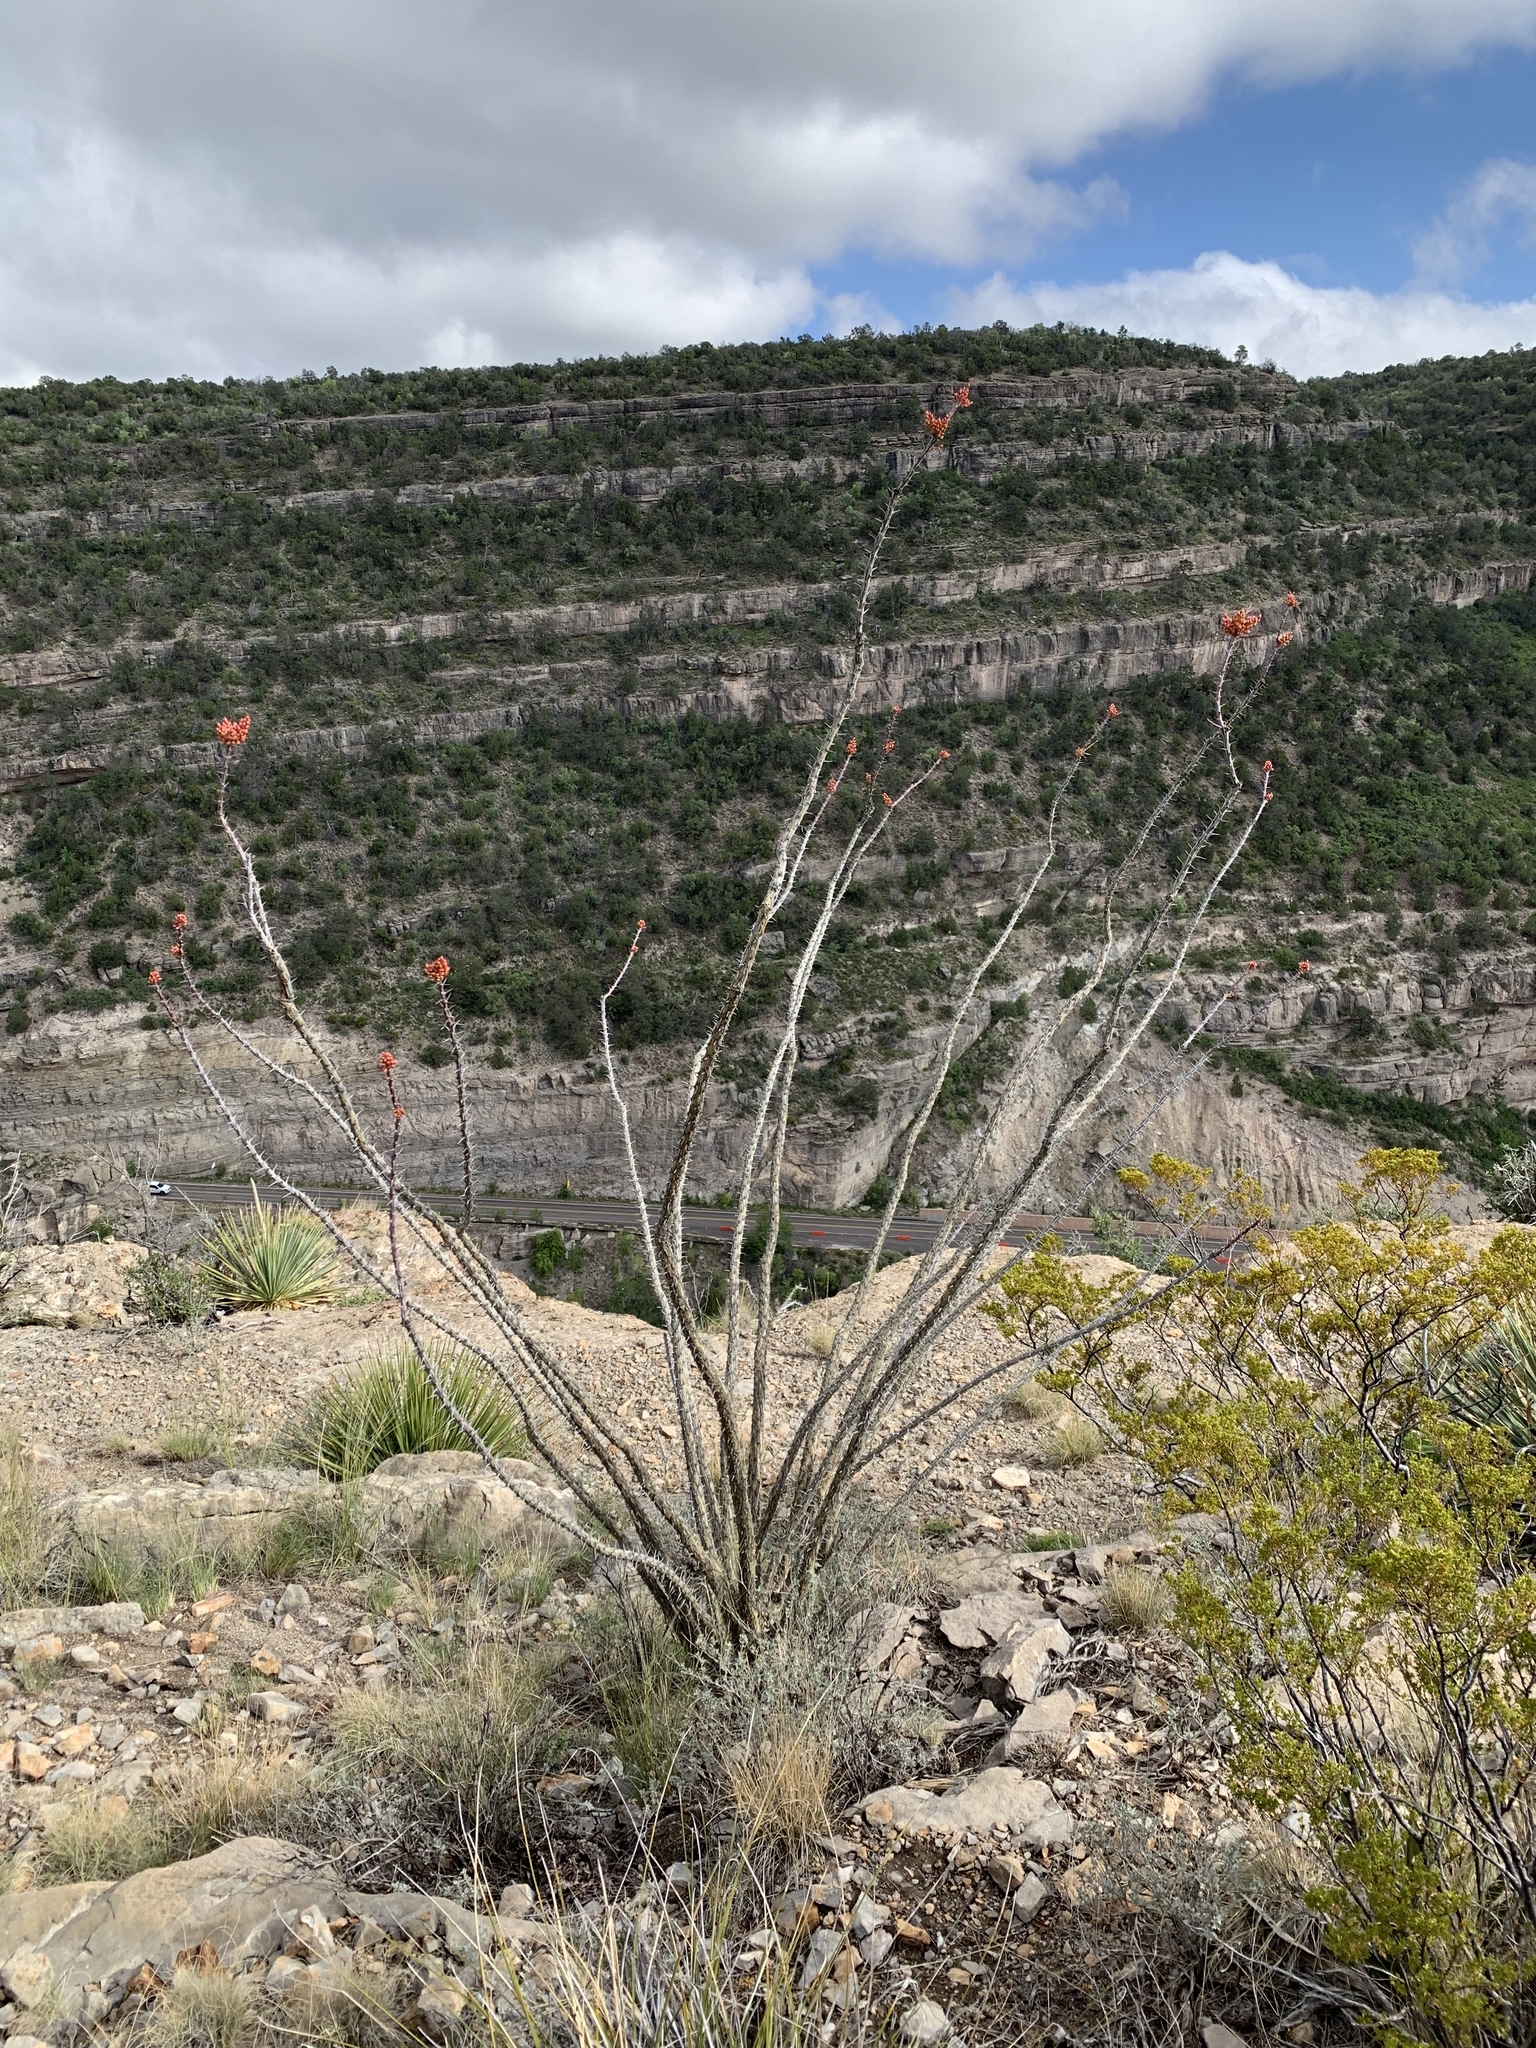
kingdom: Plantae
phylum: Tracheophyta
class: Magnoliopsida
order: Ericales
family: Fouquieriaceae
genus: Fouquieria
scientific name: Fouquieria splendens
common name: Vine-cactus
